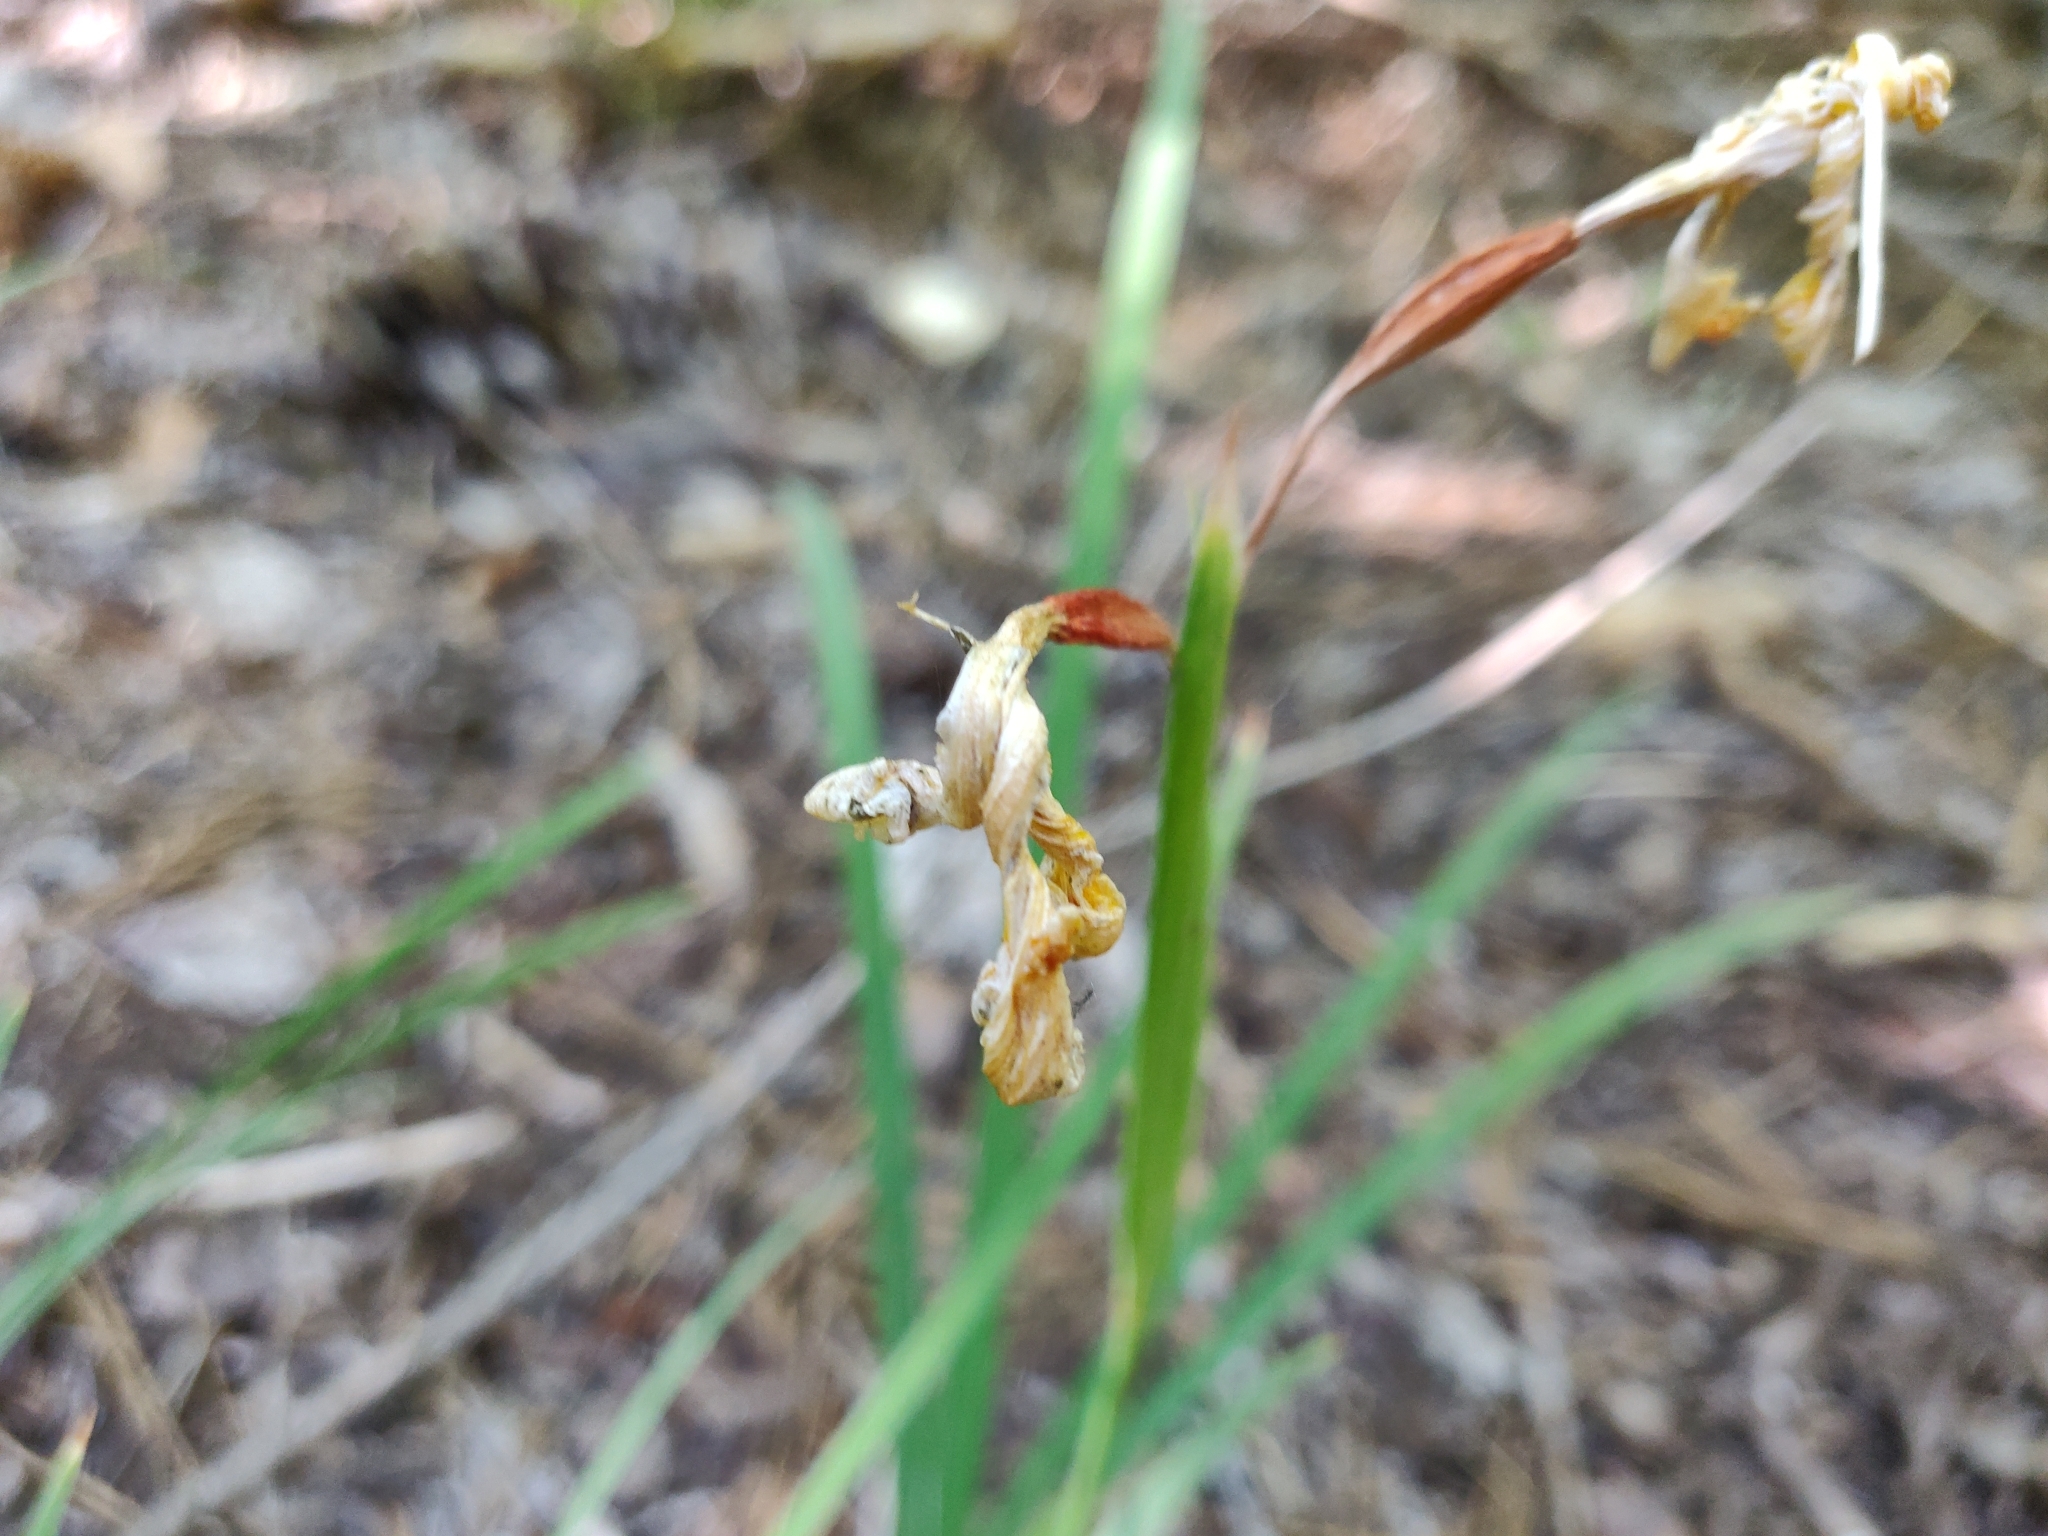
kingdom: Plantae
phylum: Tracheophyta
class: Liliopsida
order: Asparagales
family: Iridaceae
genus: Iris
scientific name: Iris hartwegii
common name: Sierra iris
